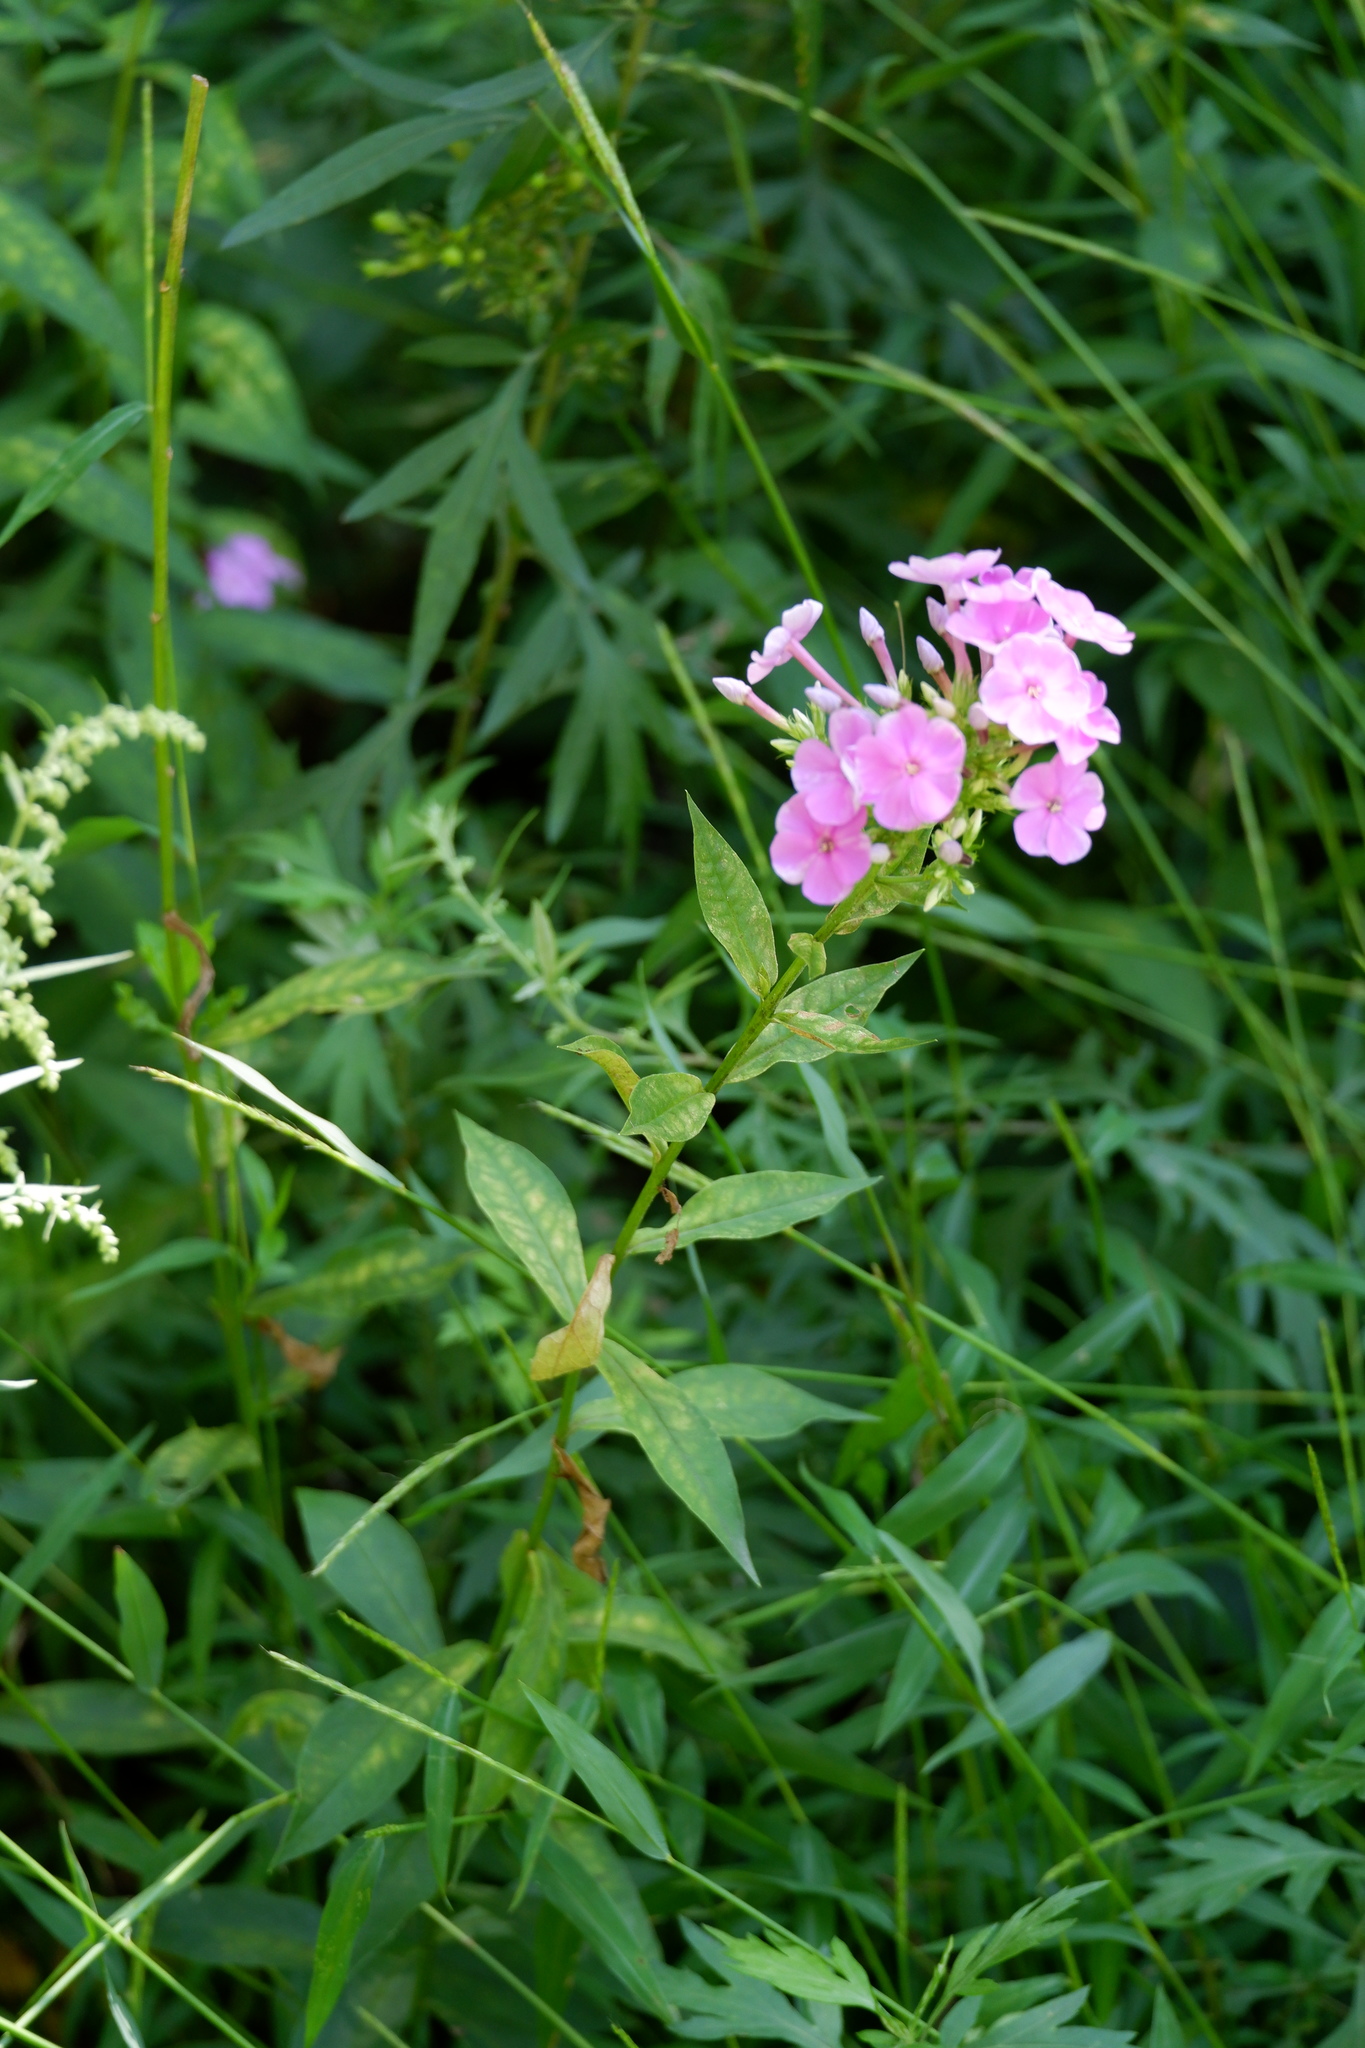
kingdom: Plantae
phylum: Tracheophyta
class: Magnoliopsida
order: Ericales
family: Polemoniaceae
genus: Phlox
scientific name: Phlox paniculata
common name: Fall phlox
